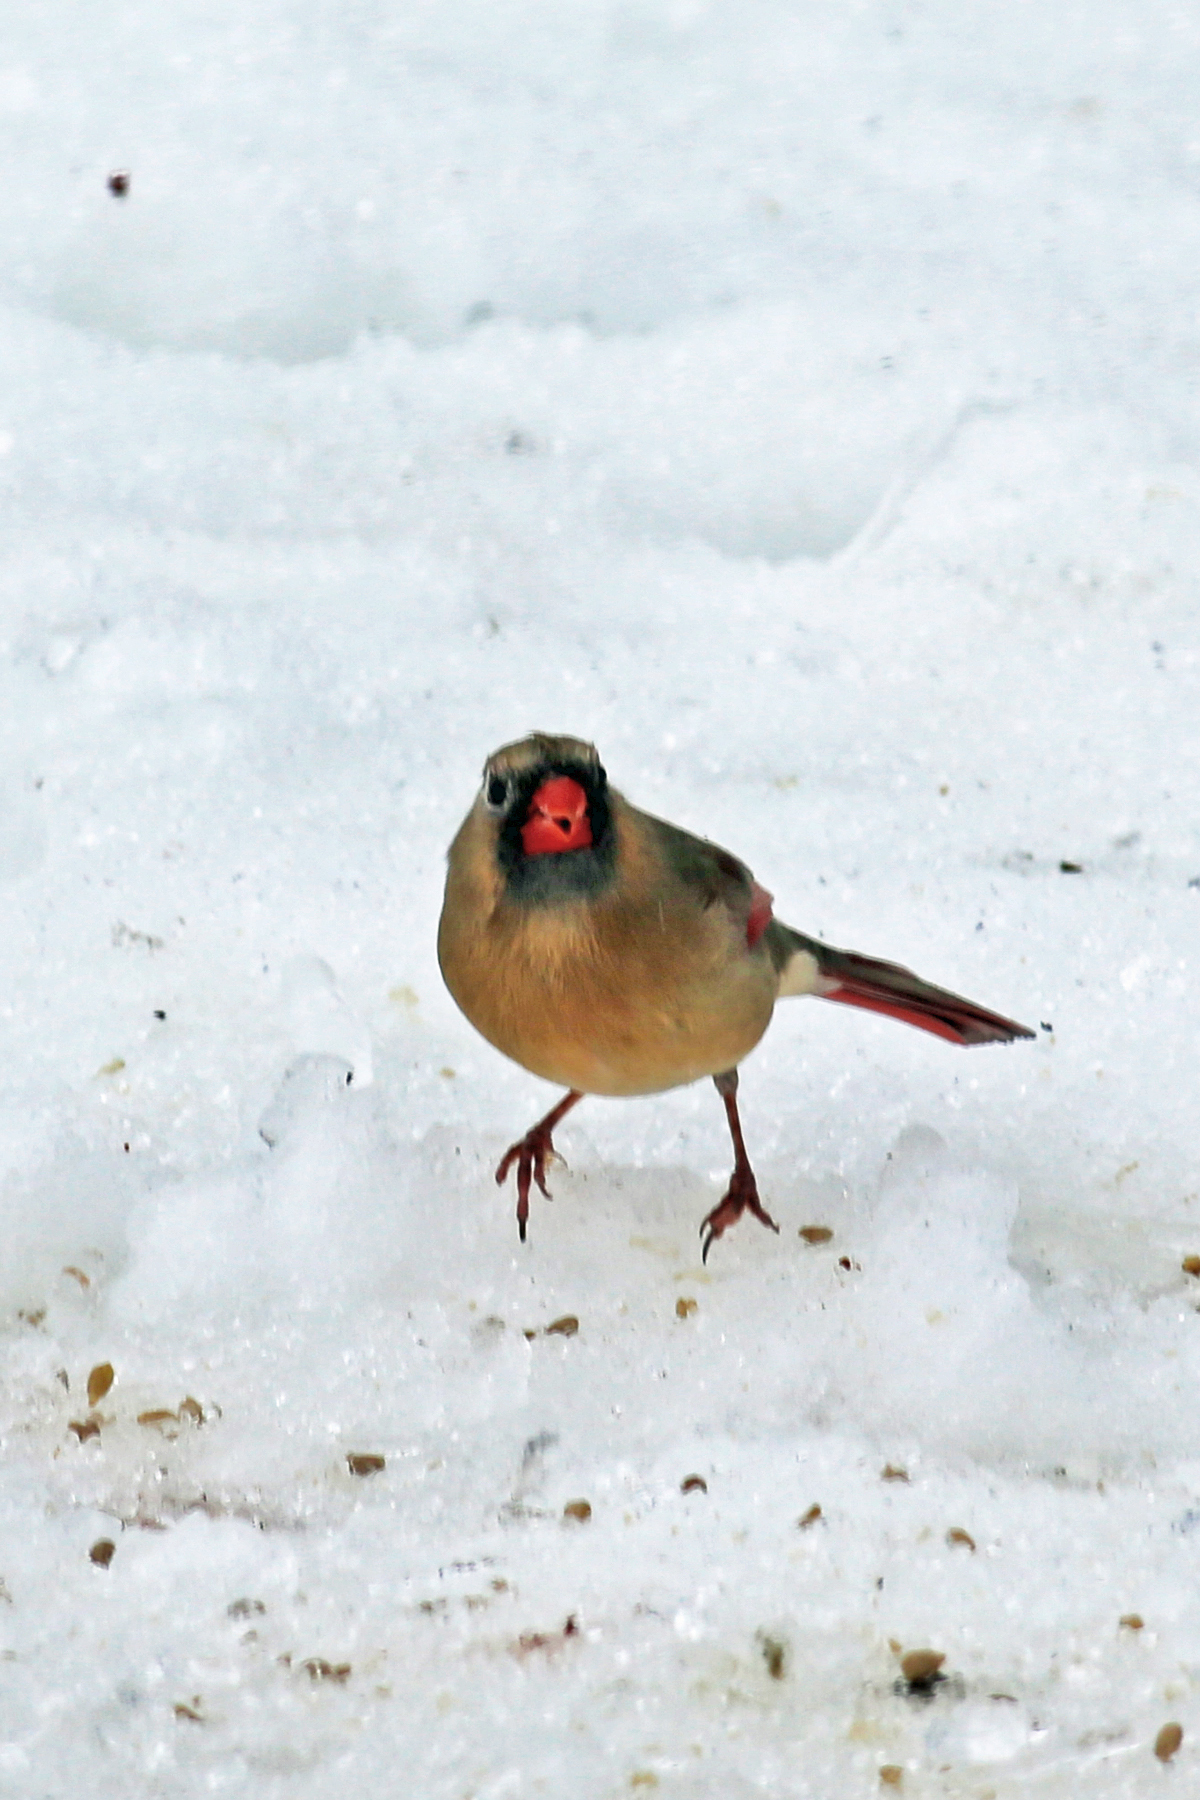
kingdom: Animalia
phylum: Chordata
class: Aves
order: Passeriformes
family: Cardinalidae
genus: Cardinalis
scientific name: Cardinalis cardinalis
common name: Northern cardinal
